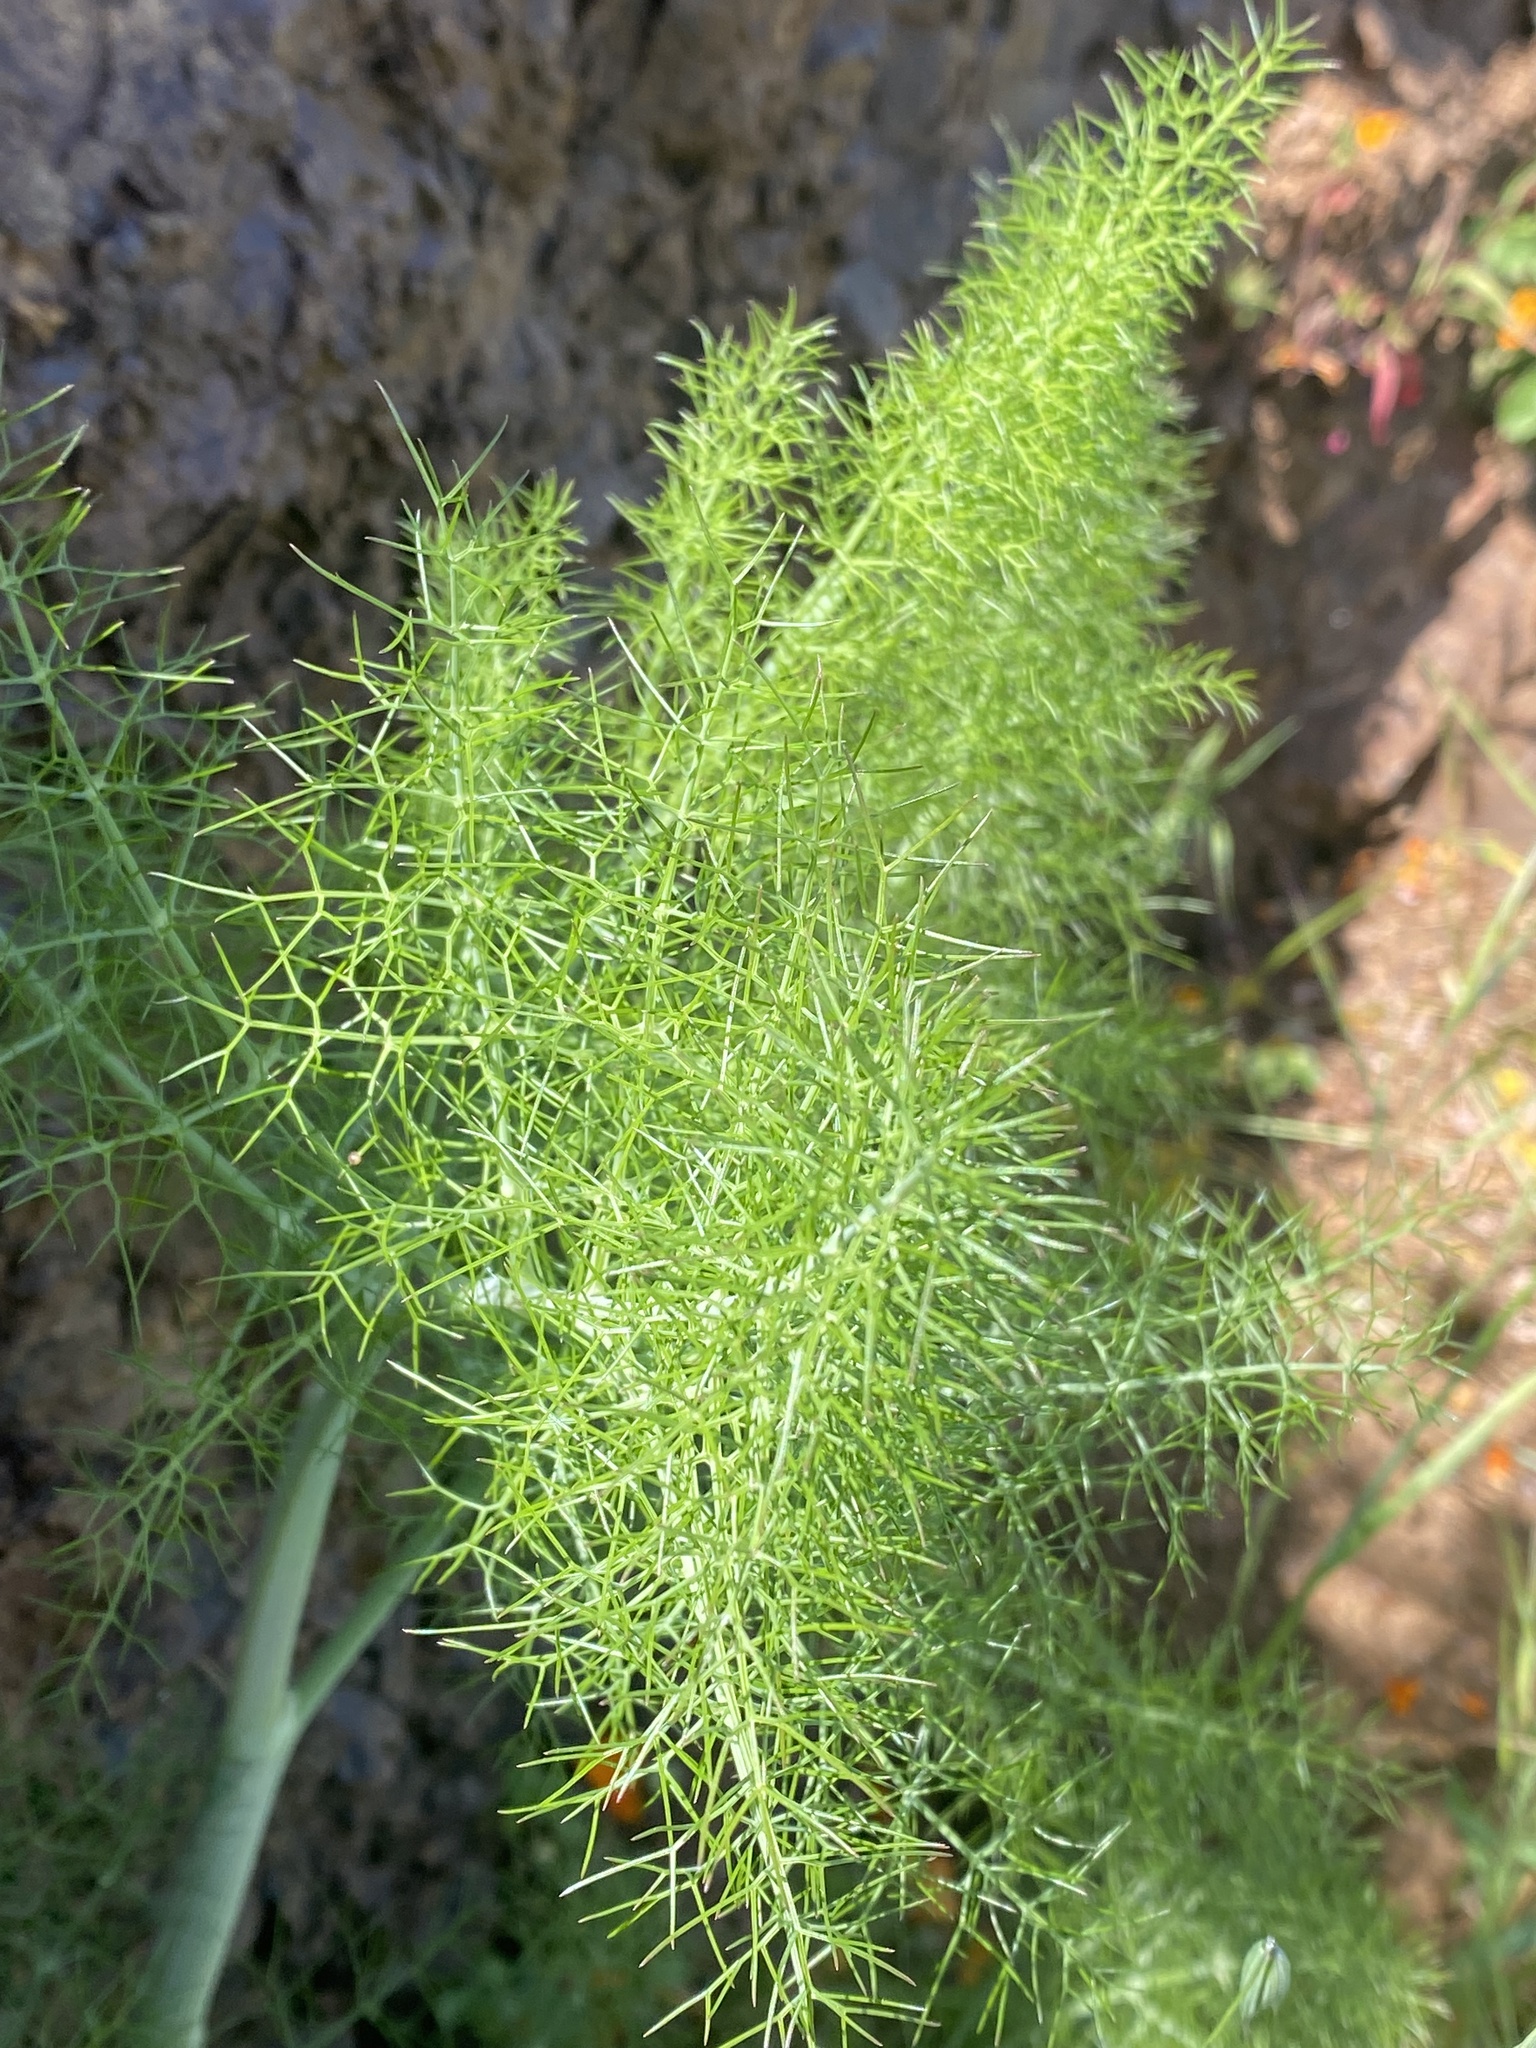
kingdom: Plantae
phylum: Tracheophyta
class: Magnoliopsida
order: Apiales
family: Apiaceae
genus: Foeniculum
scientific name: Foeniculum vulgare
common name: Fennel
